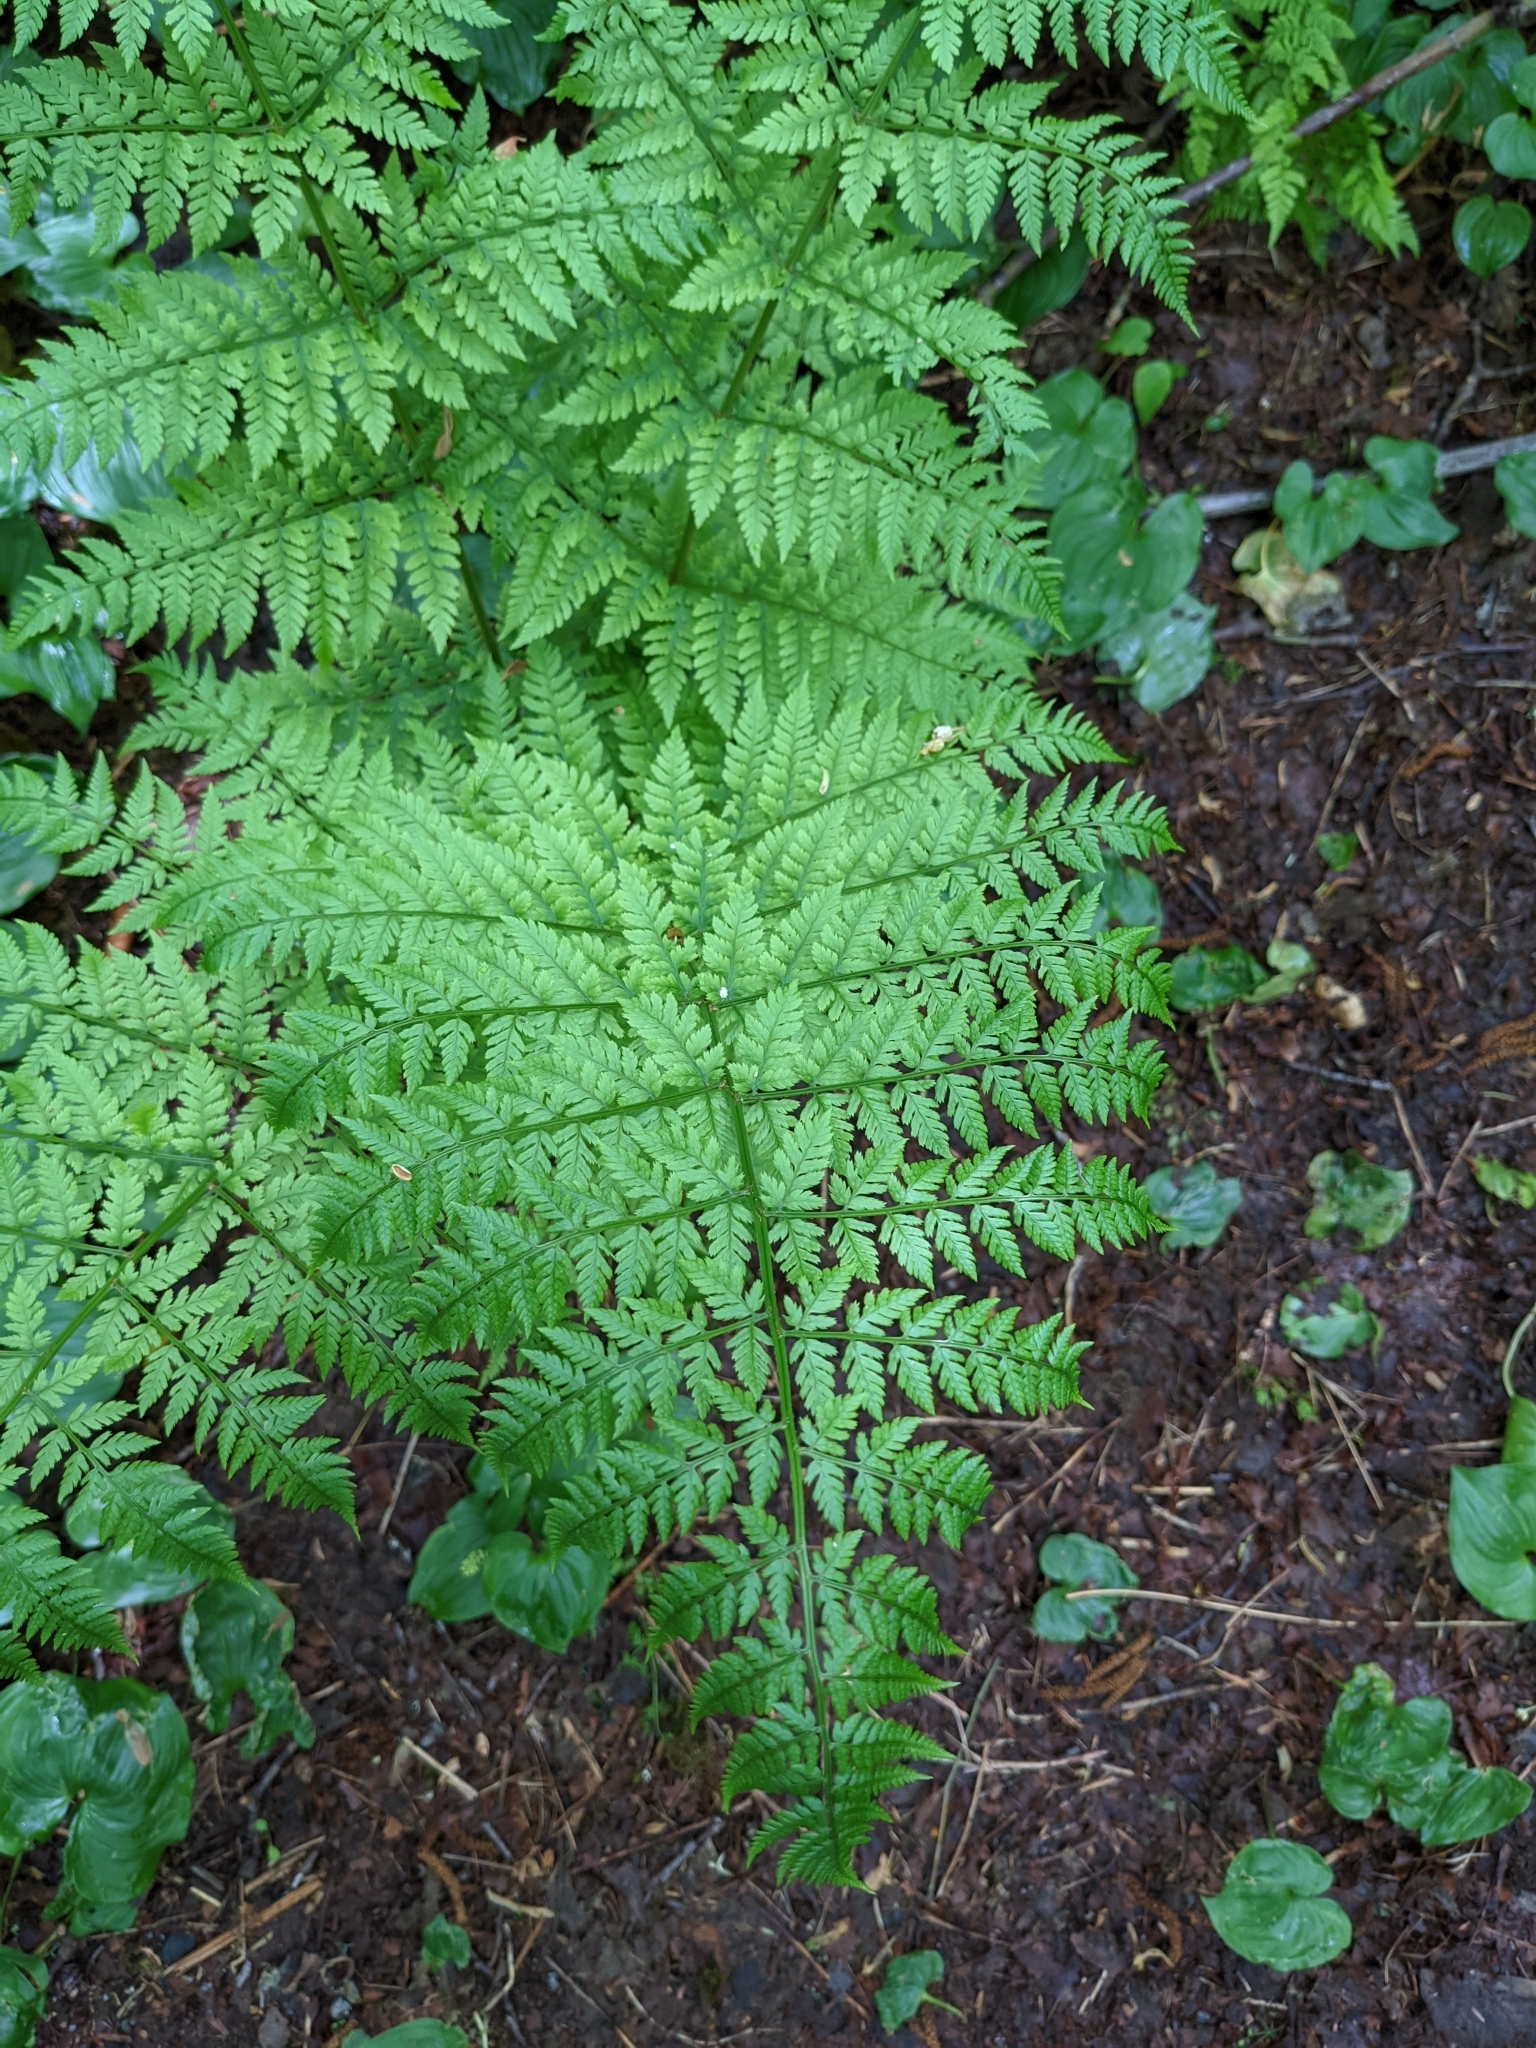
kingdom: Plantae
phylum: Tracheophyta
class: Polypodiopsida
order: Polypodiales
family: Dryopteridaceae
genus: Dryopteris
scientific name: Dryopteris expansa
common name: Northern buckler fern
